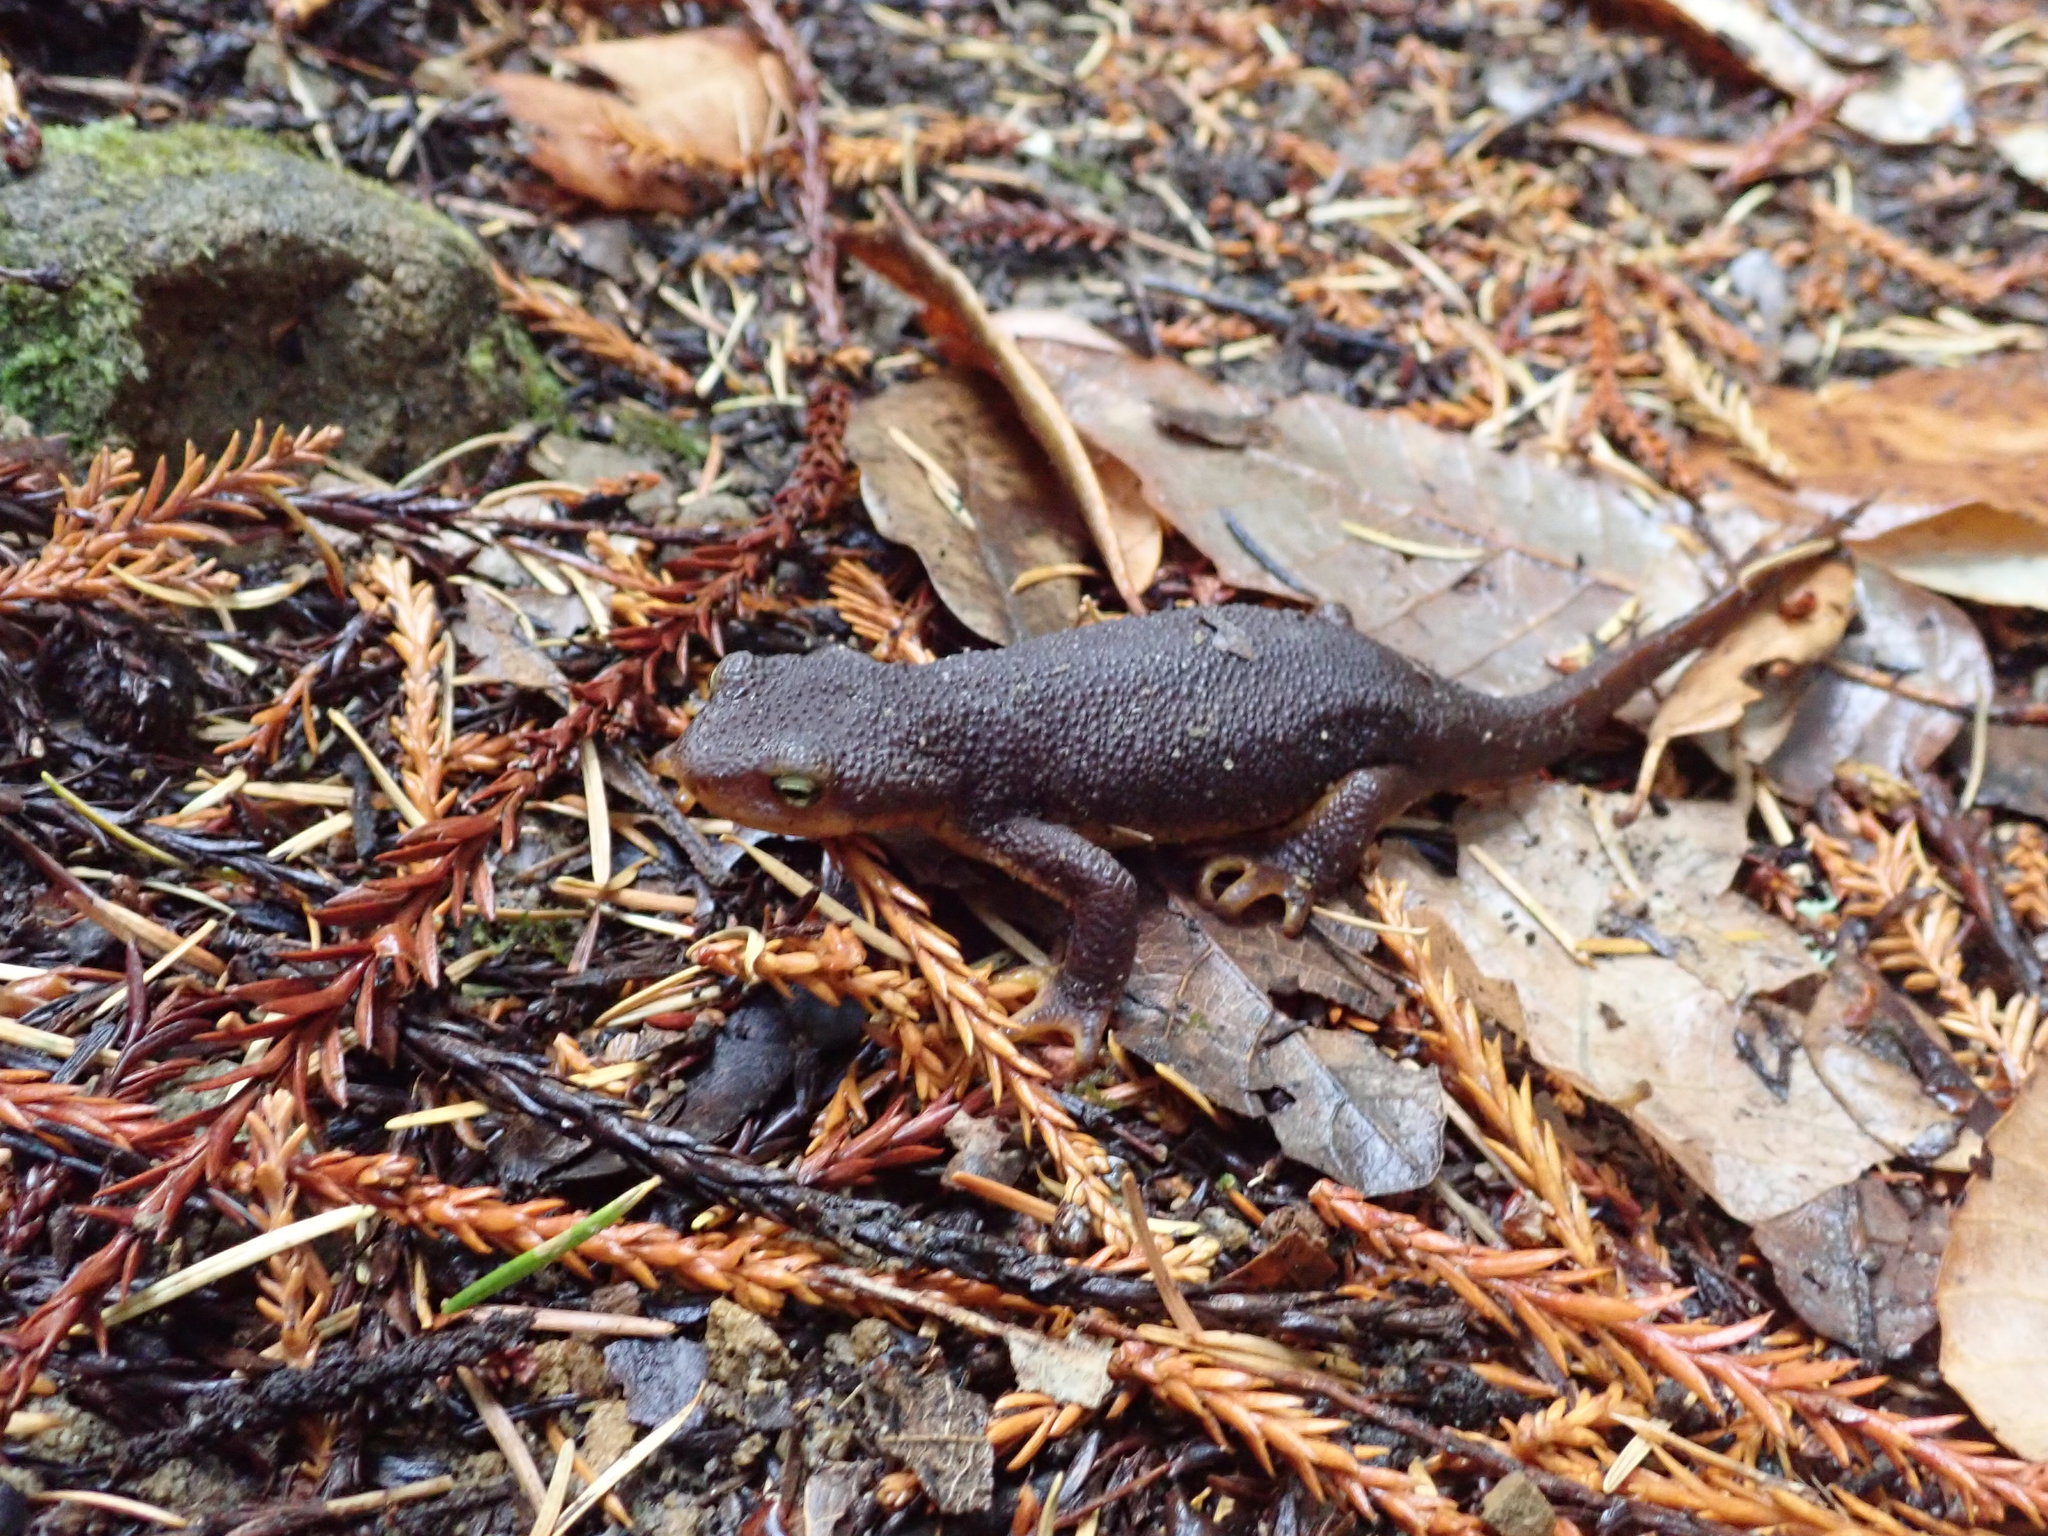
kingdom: Animalia
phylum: Chordata
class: Amphibia
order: Caudata
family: Salamandridae
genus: Taricha
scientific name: Taricha granulosa
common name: Roughskin newt
